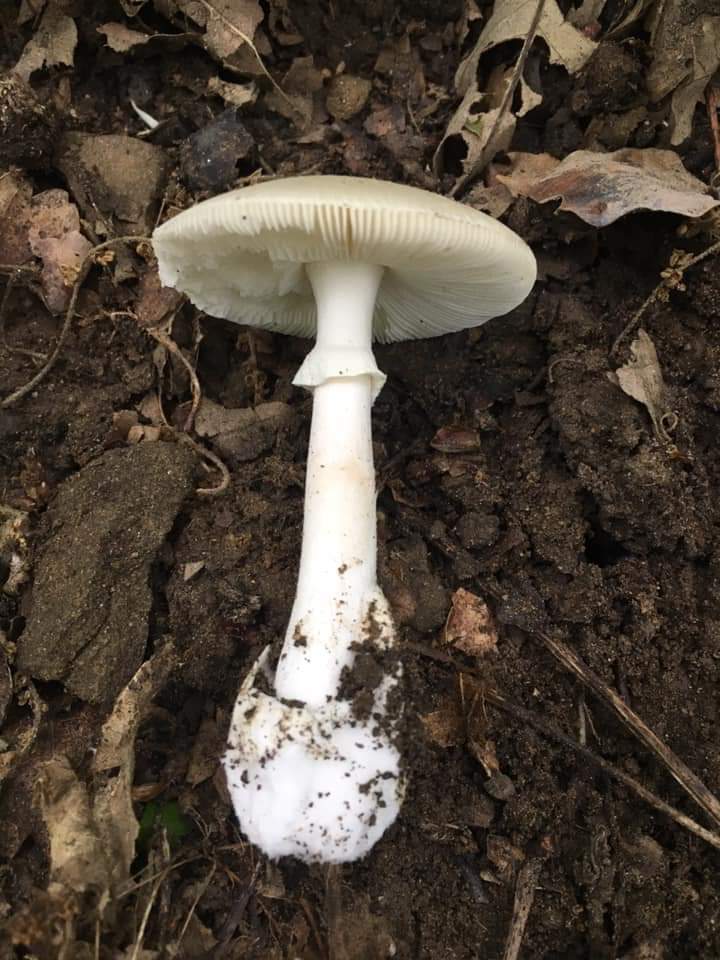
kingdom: Fungi
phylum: Basidiomycota
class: Agaricomycetes
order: Agaricales
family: Amanitaceae
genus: Amanita
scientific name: Amanita verna
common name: Fool's mushroom
